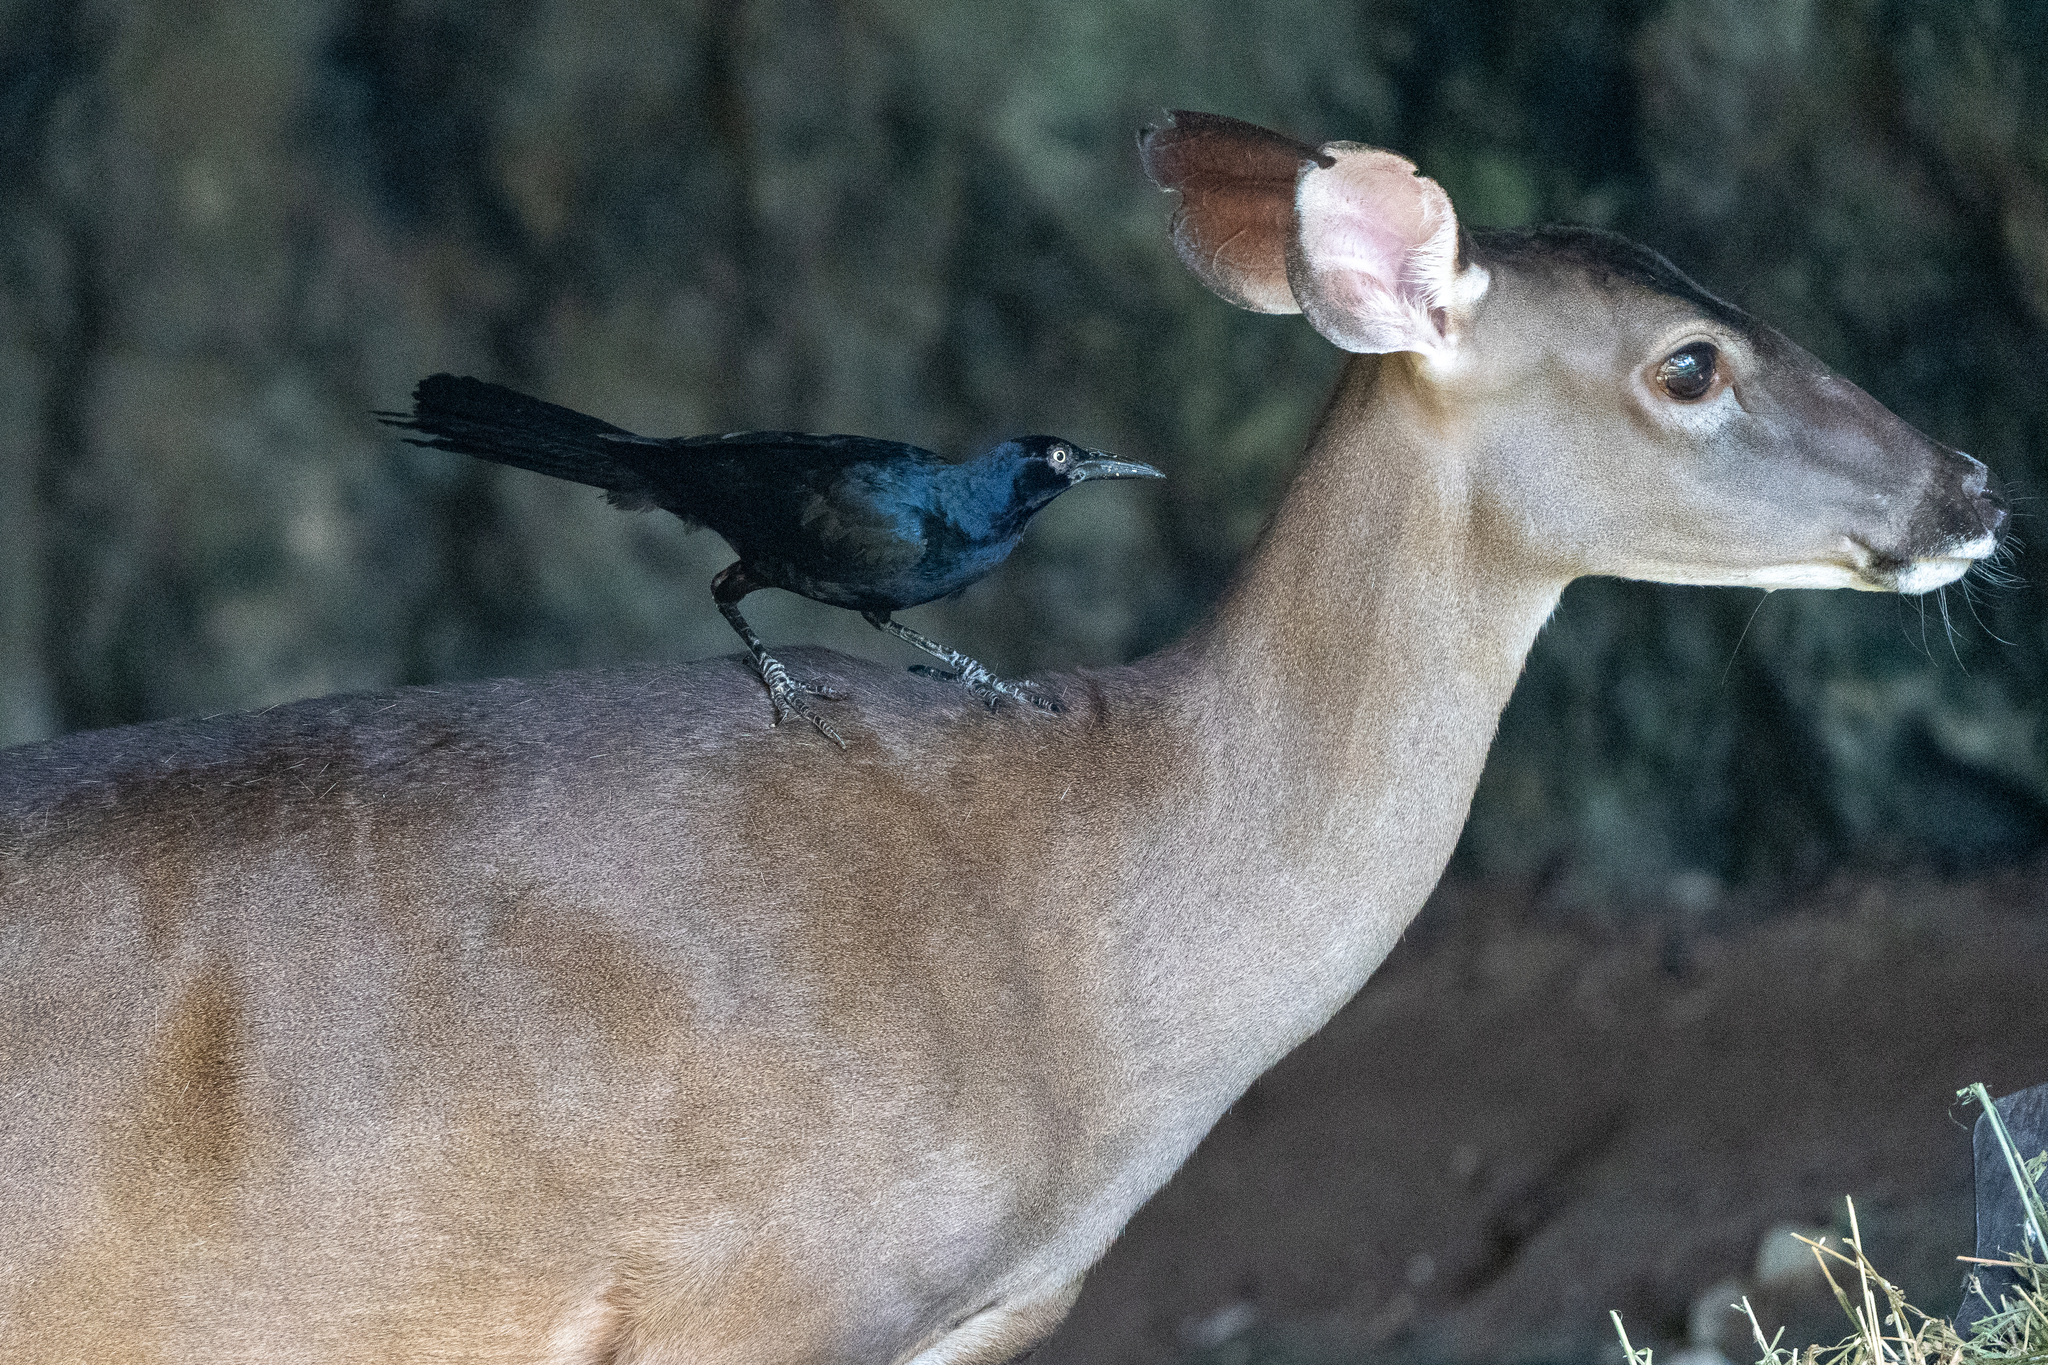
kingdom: Animalia
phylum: Chordata
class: Aves
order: Passeriformes
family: Icteridae
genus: Quiscalus
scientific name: Quiscalus mexicanus
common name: Great-tailed grackle
